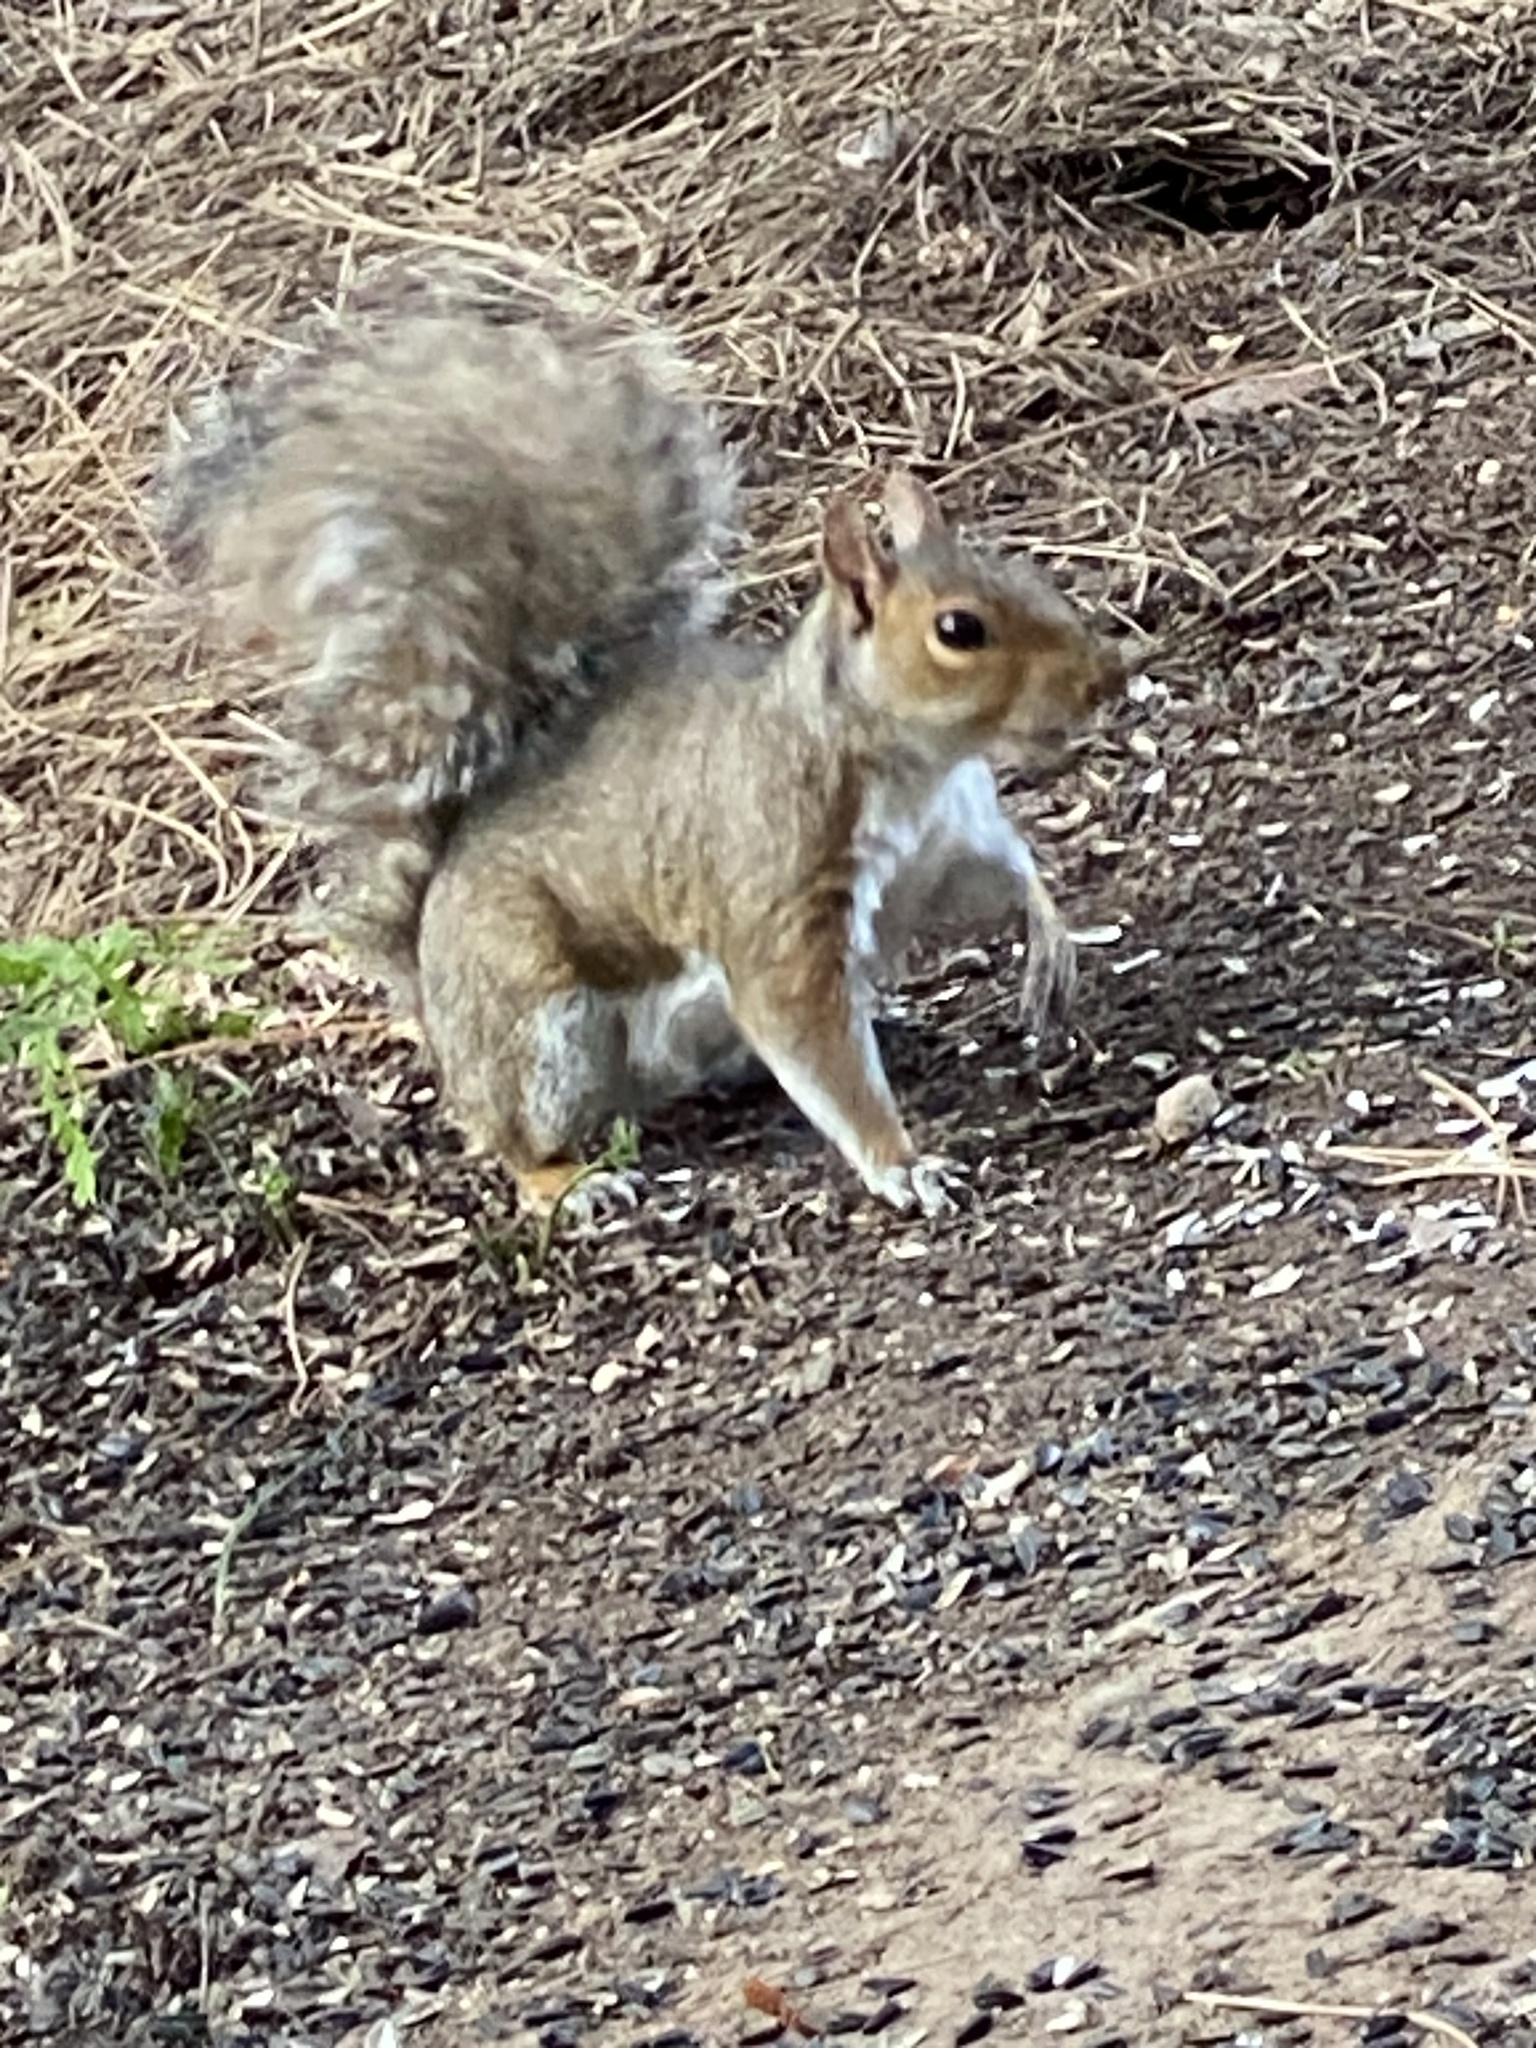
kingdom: Animalia
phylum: Chordata
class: Mammalia
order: Rodentia
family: Sciuridae
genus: Sciurus
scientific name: Sciurus carolinensis
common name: Eastern gray squirrel
